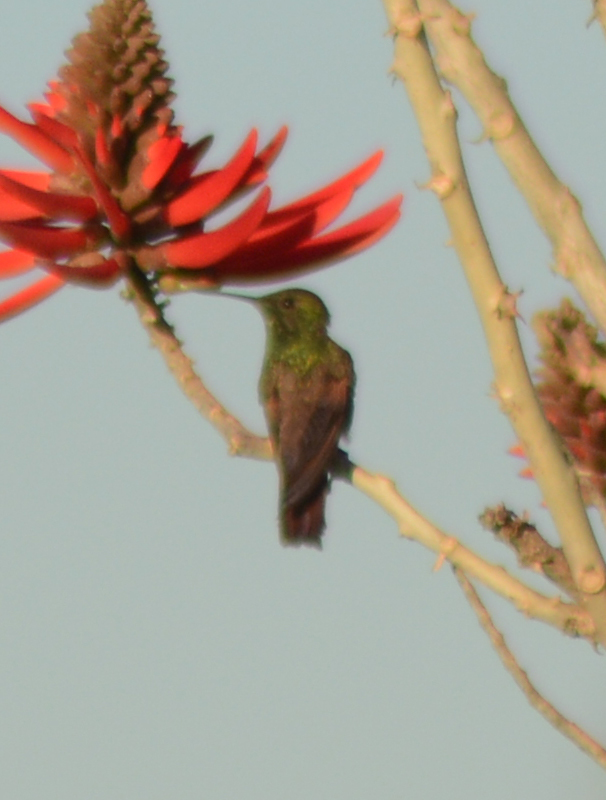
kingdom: Animalia
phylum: Chordata
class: Aves
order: Apodiformes
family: Trochilidae
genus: Saucerottia
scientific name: Saucerottia beryllina
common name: Berylline hummingbird
